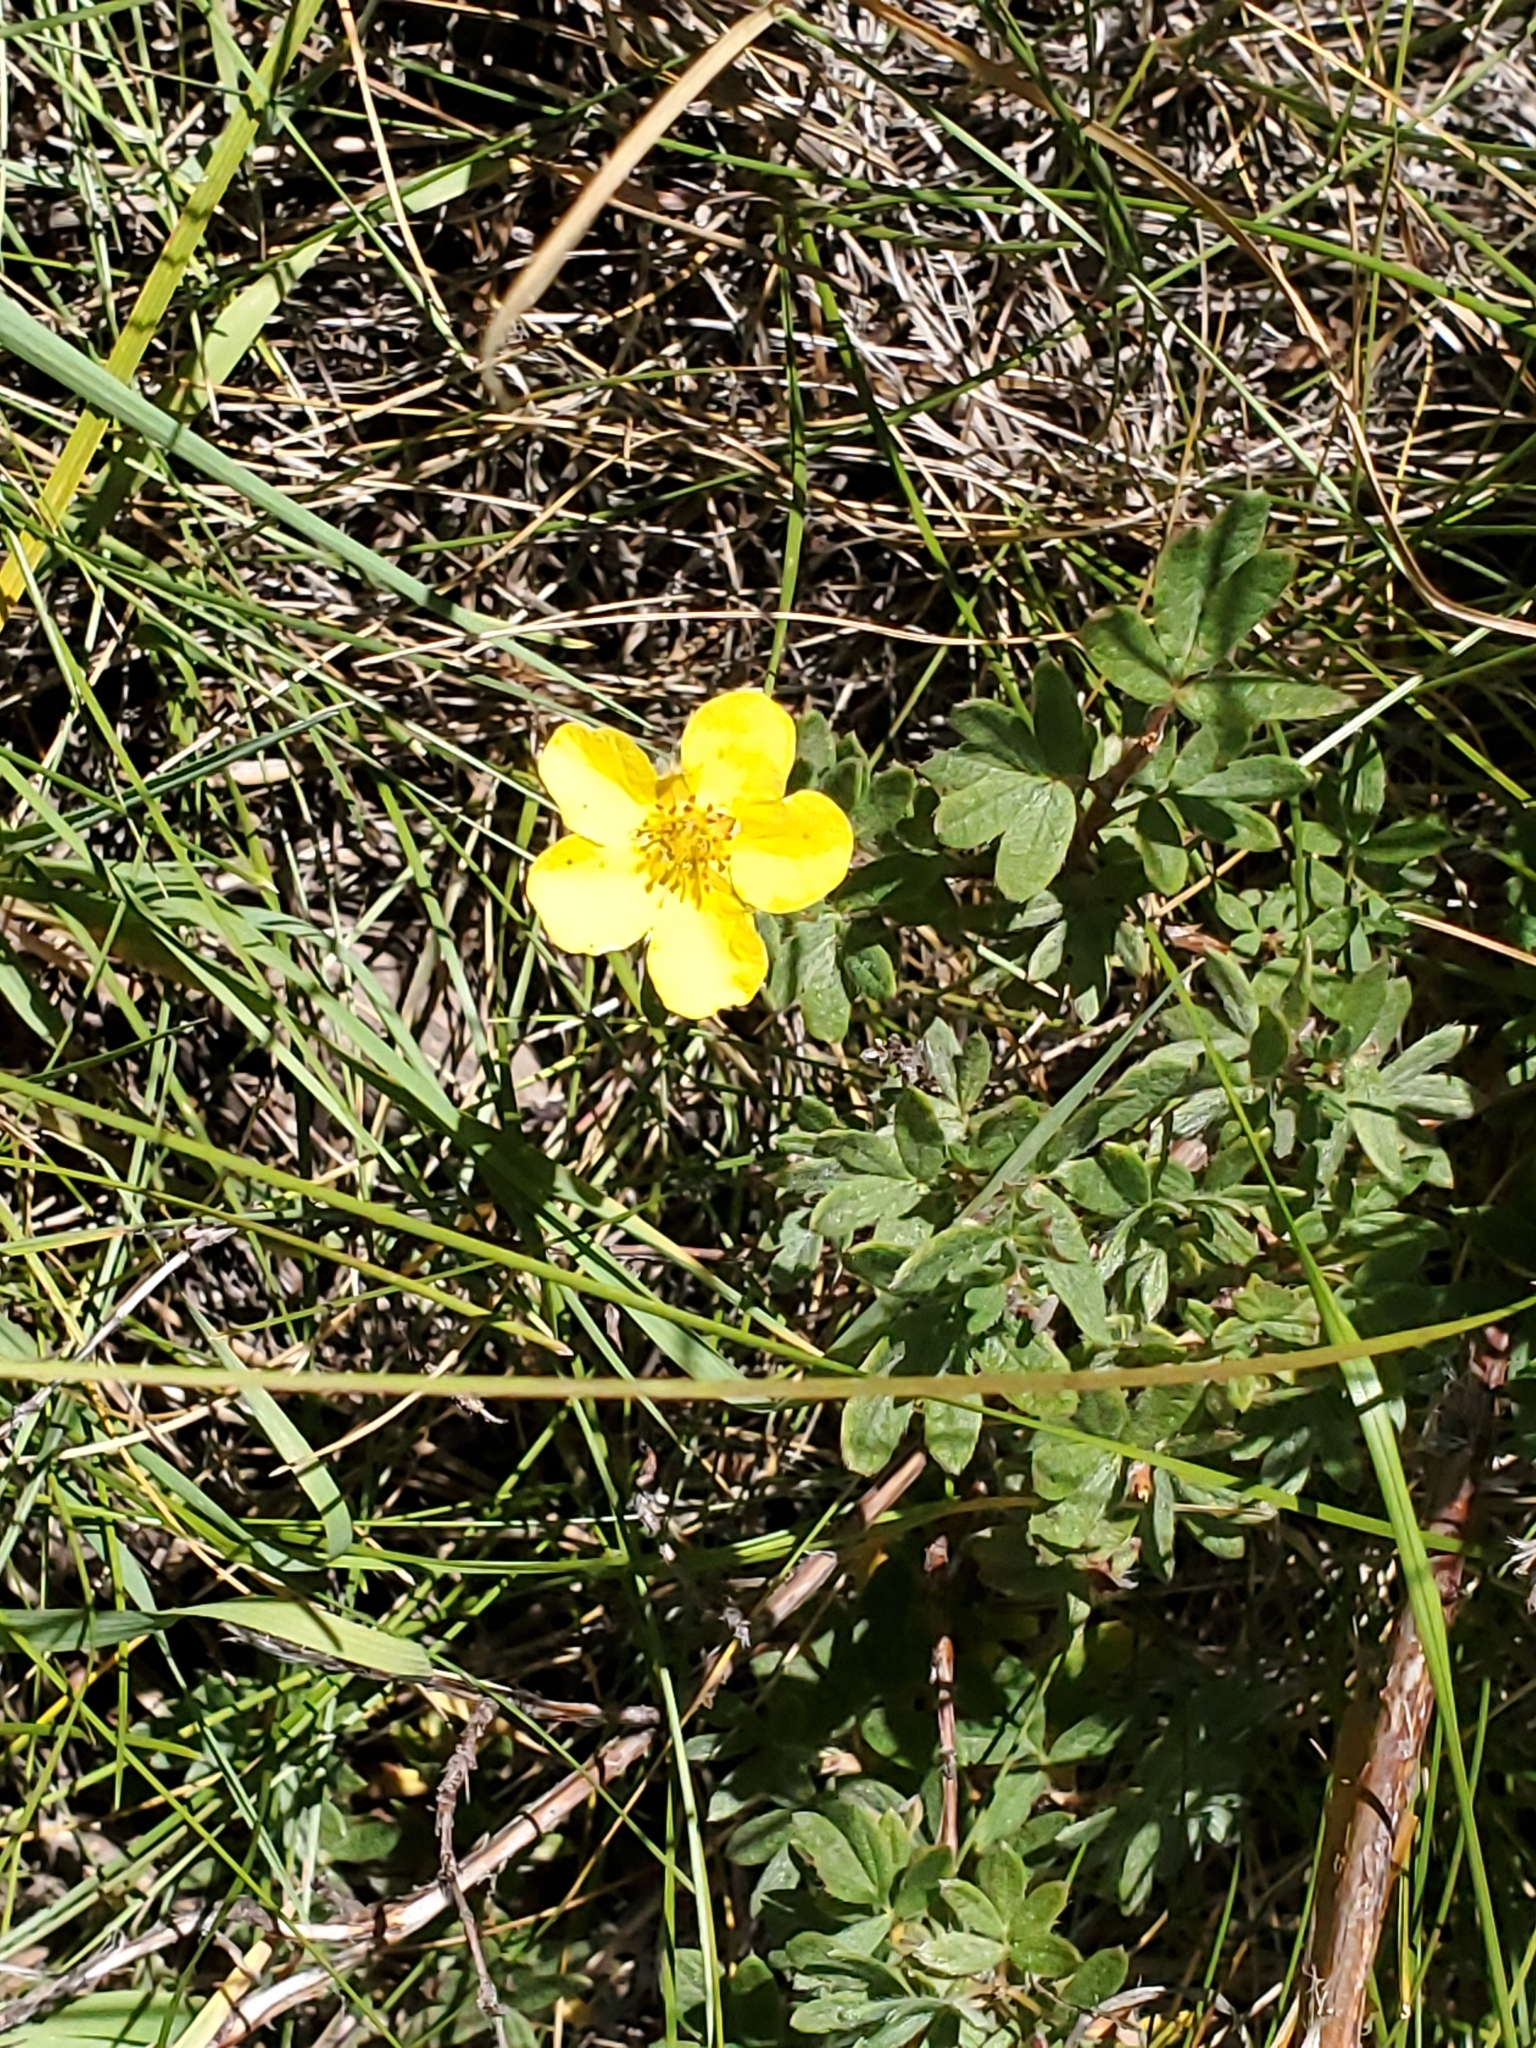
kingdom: Plantae
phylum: Tracheophyta
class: Magnoliopsida
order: Rosales
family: Rosaceae
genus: Dasiphora
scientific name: Dasiphora fruticosa
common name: Shrubby cinquefoil
